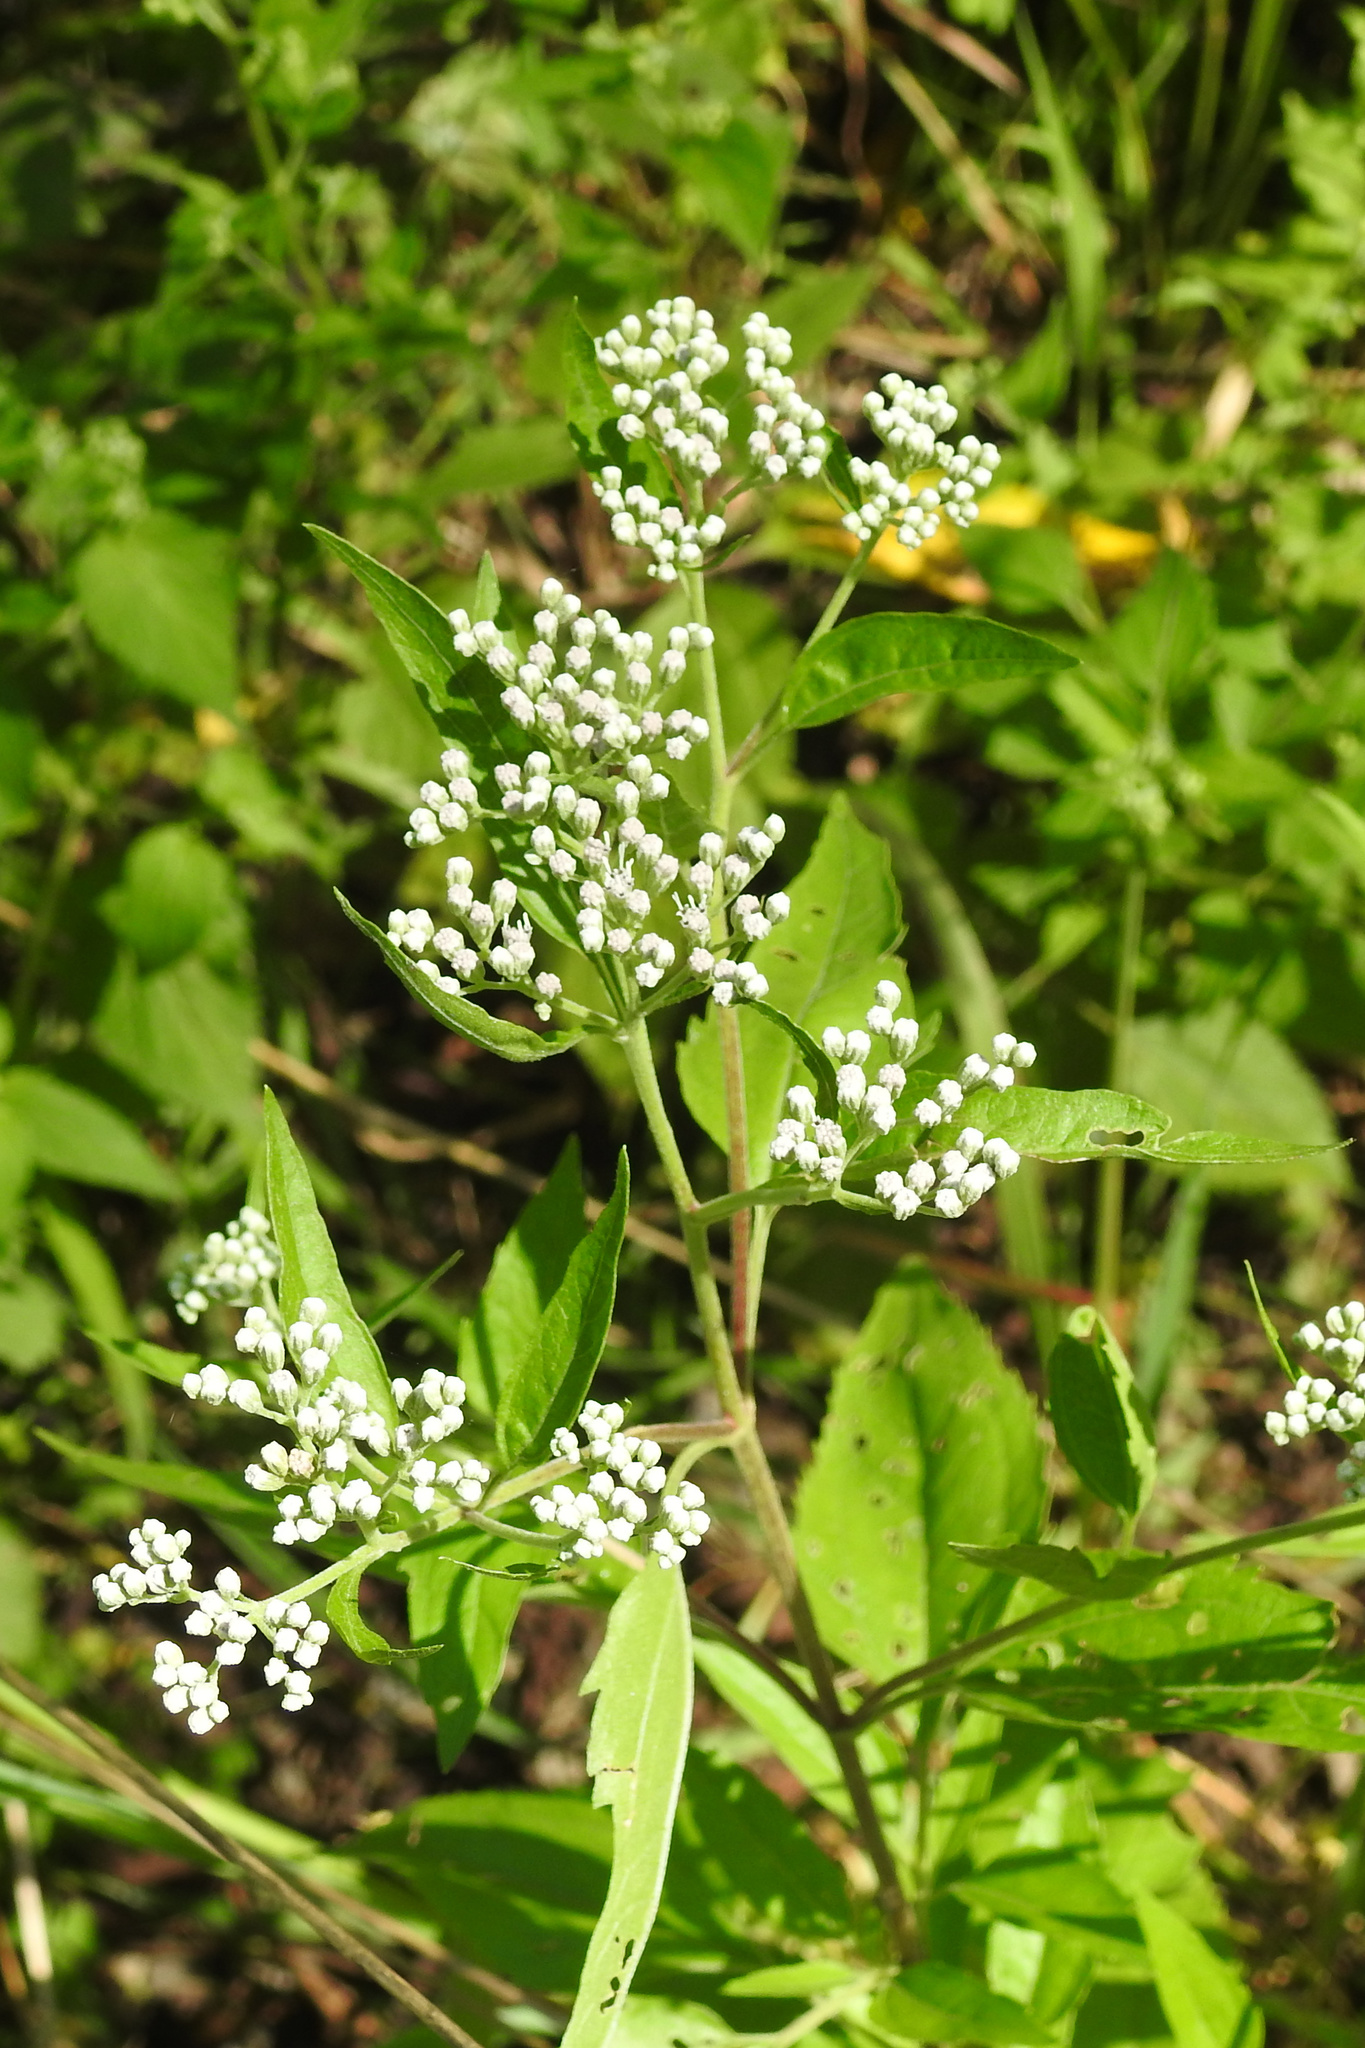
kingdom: Plantae
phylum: Tracheophyta
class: Magnoliopsida
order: Asterales
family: Asteraceae
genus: Eupatorium
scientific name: Eupatorium serotinum
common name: Late boneset
